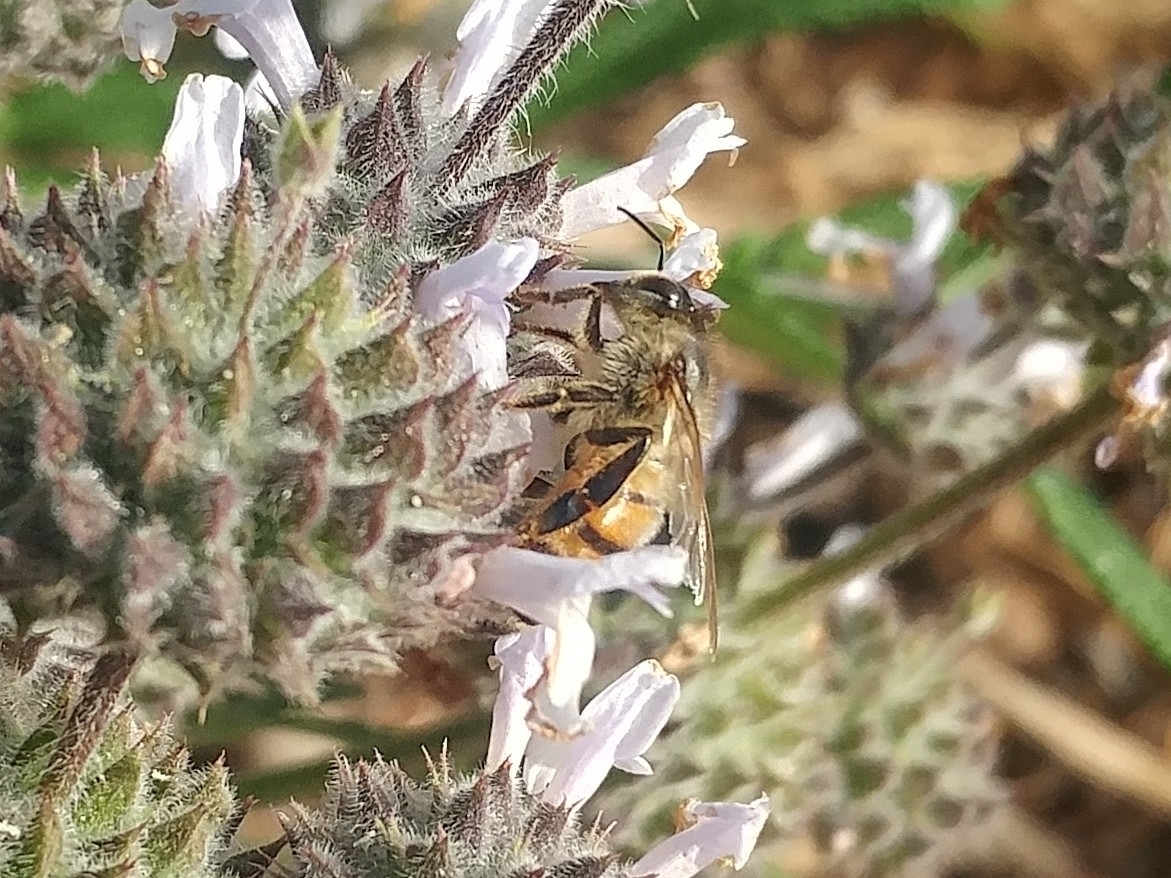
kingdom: Animalia
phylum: Arthropoda
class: Insecta
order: Hymenoptera
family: Apidae
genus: Apis
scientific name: Apis mellifera
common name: Honey bee
